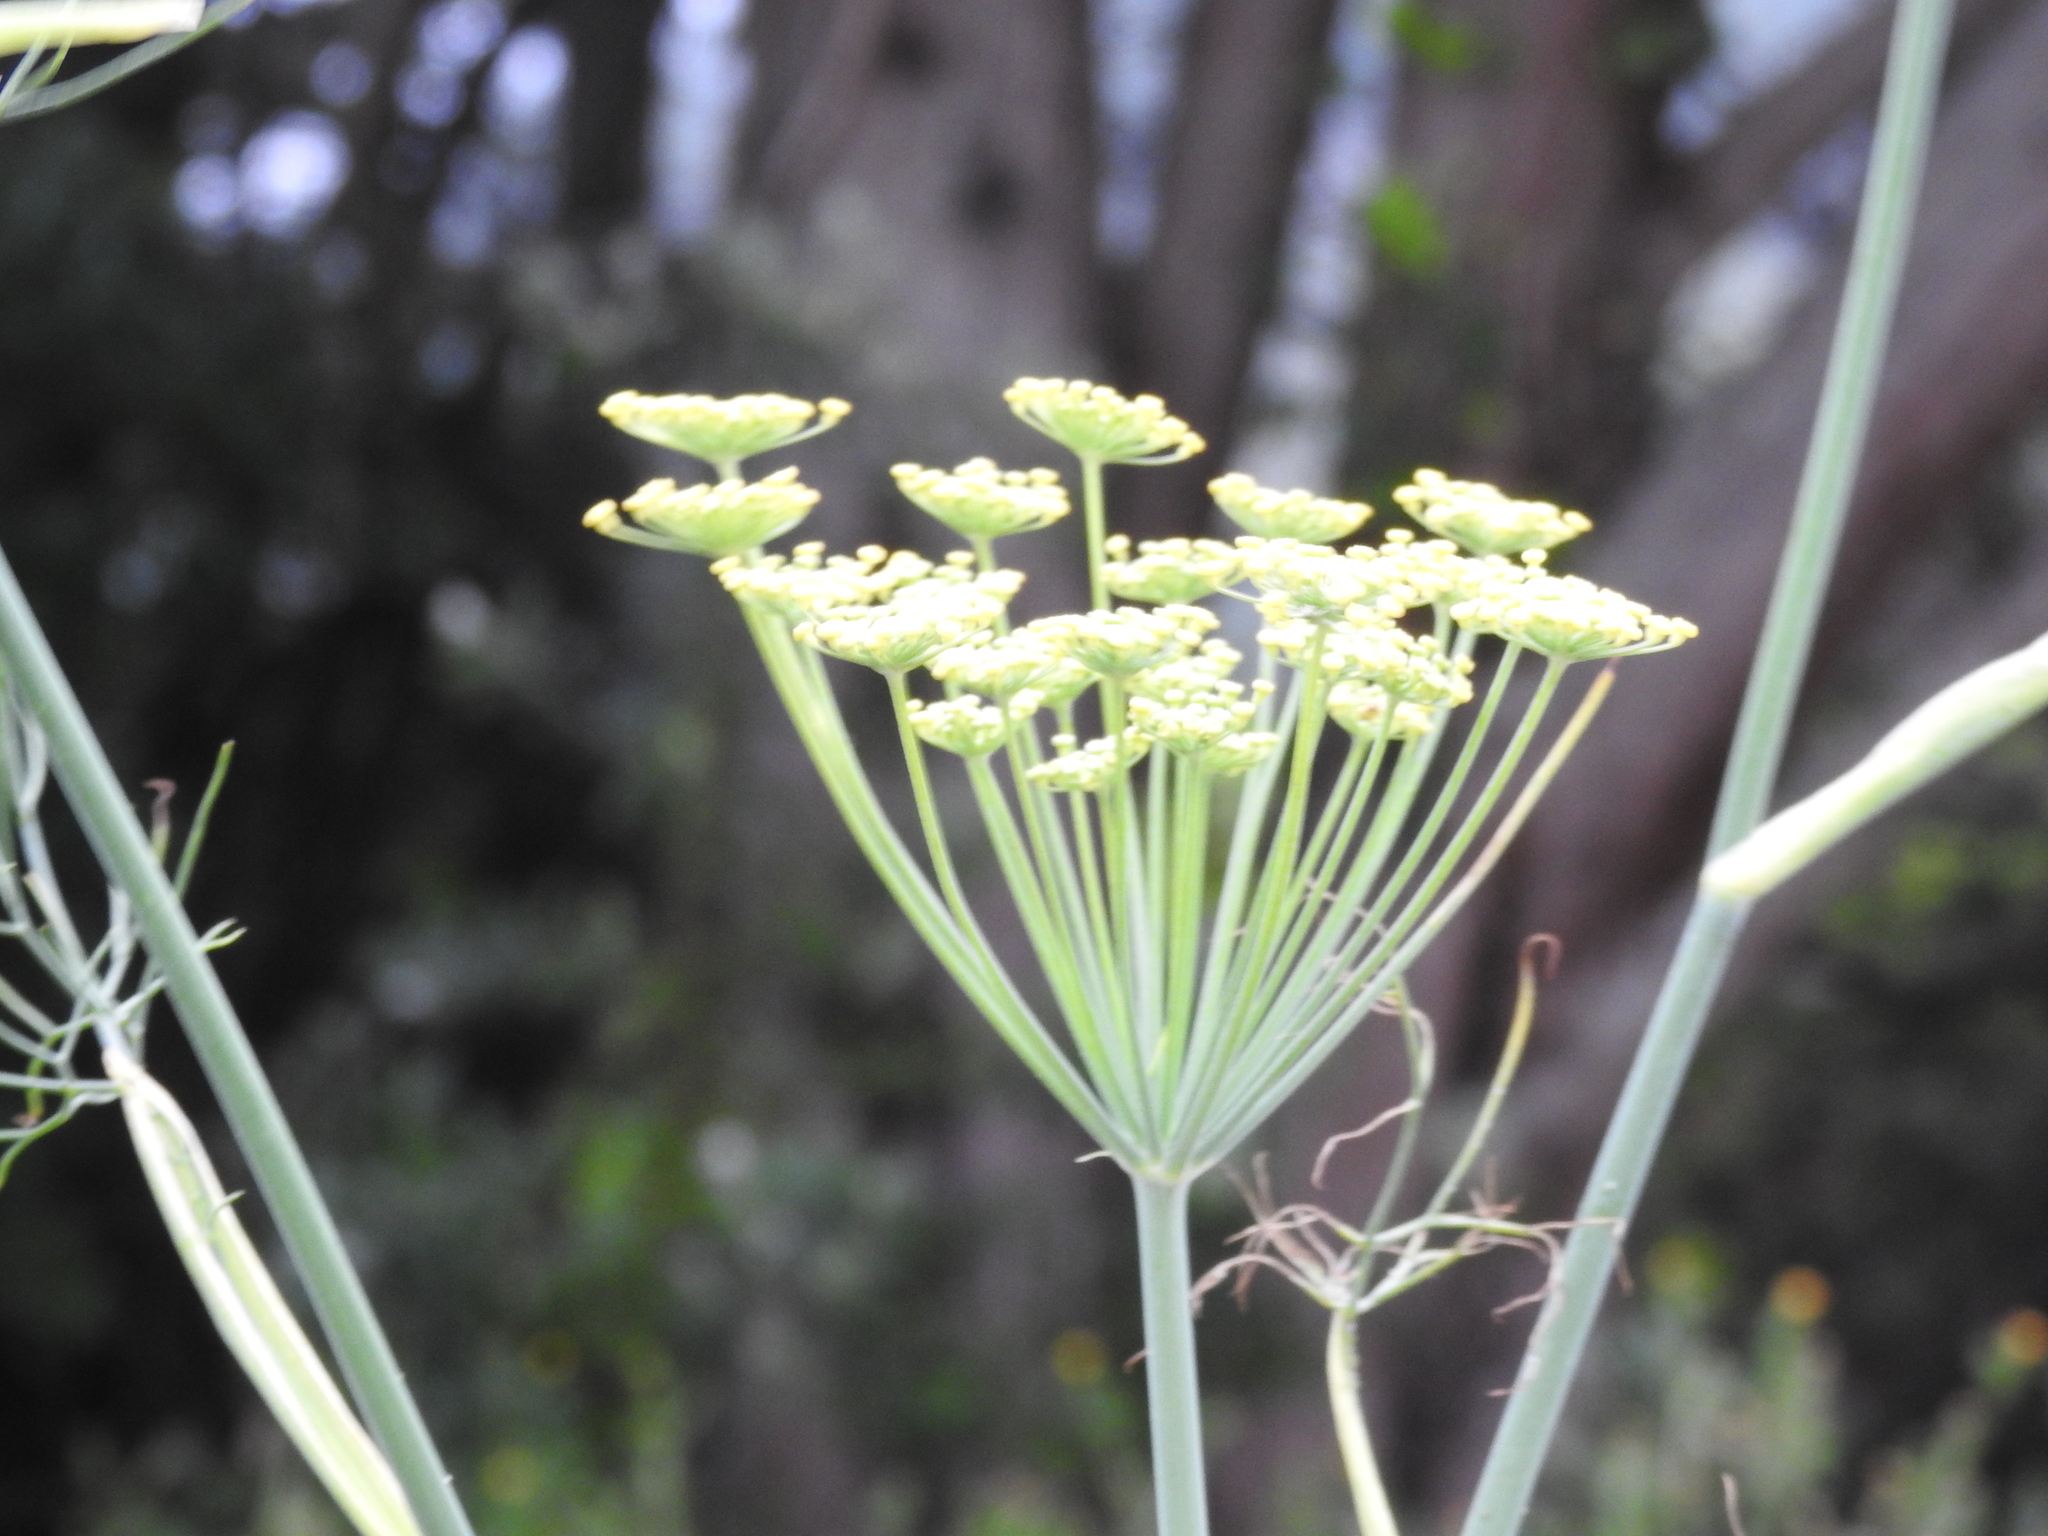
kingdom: Plantae
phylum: Tracheophyta
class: Magnoliopsida
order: Apiales
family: Apiaceae
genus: Foeniculum
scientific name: Foeniculum vulgare
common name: Fennel
